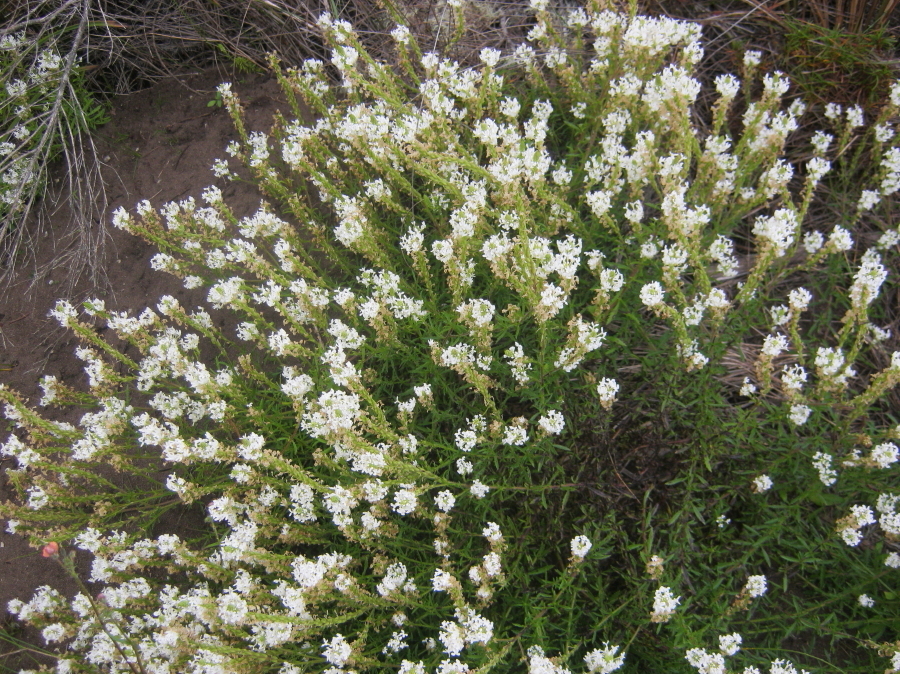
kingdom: Plantae
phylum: Tracheophyta
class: Magnoliopsida
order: Lamiales
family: Scrophulariaceae
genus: Dischisma
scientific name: Dischisma ciliatum
